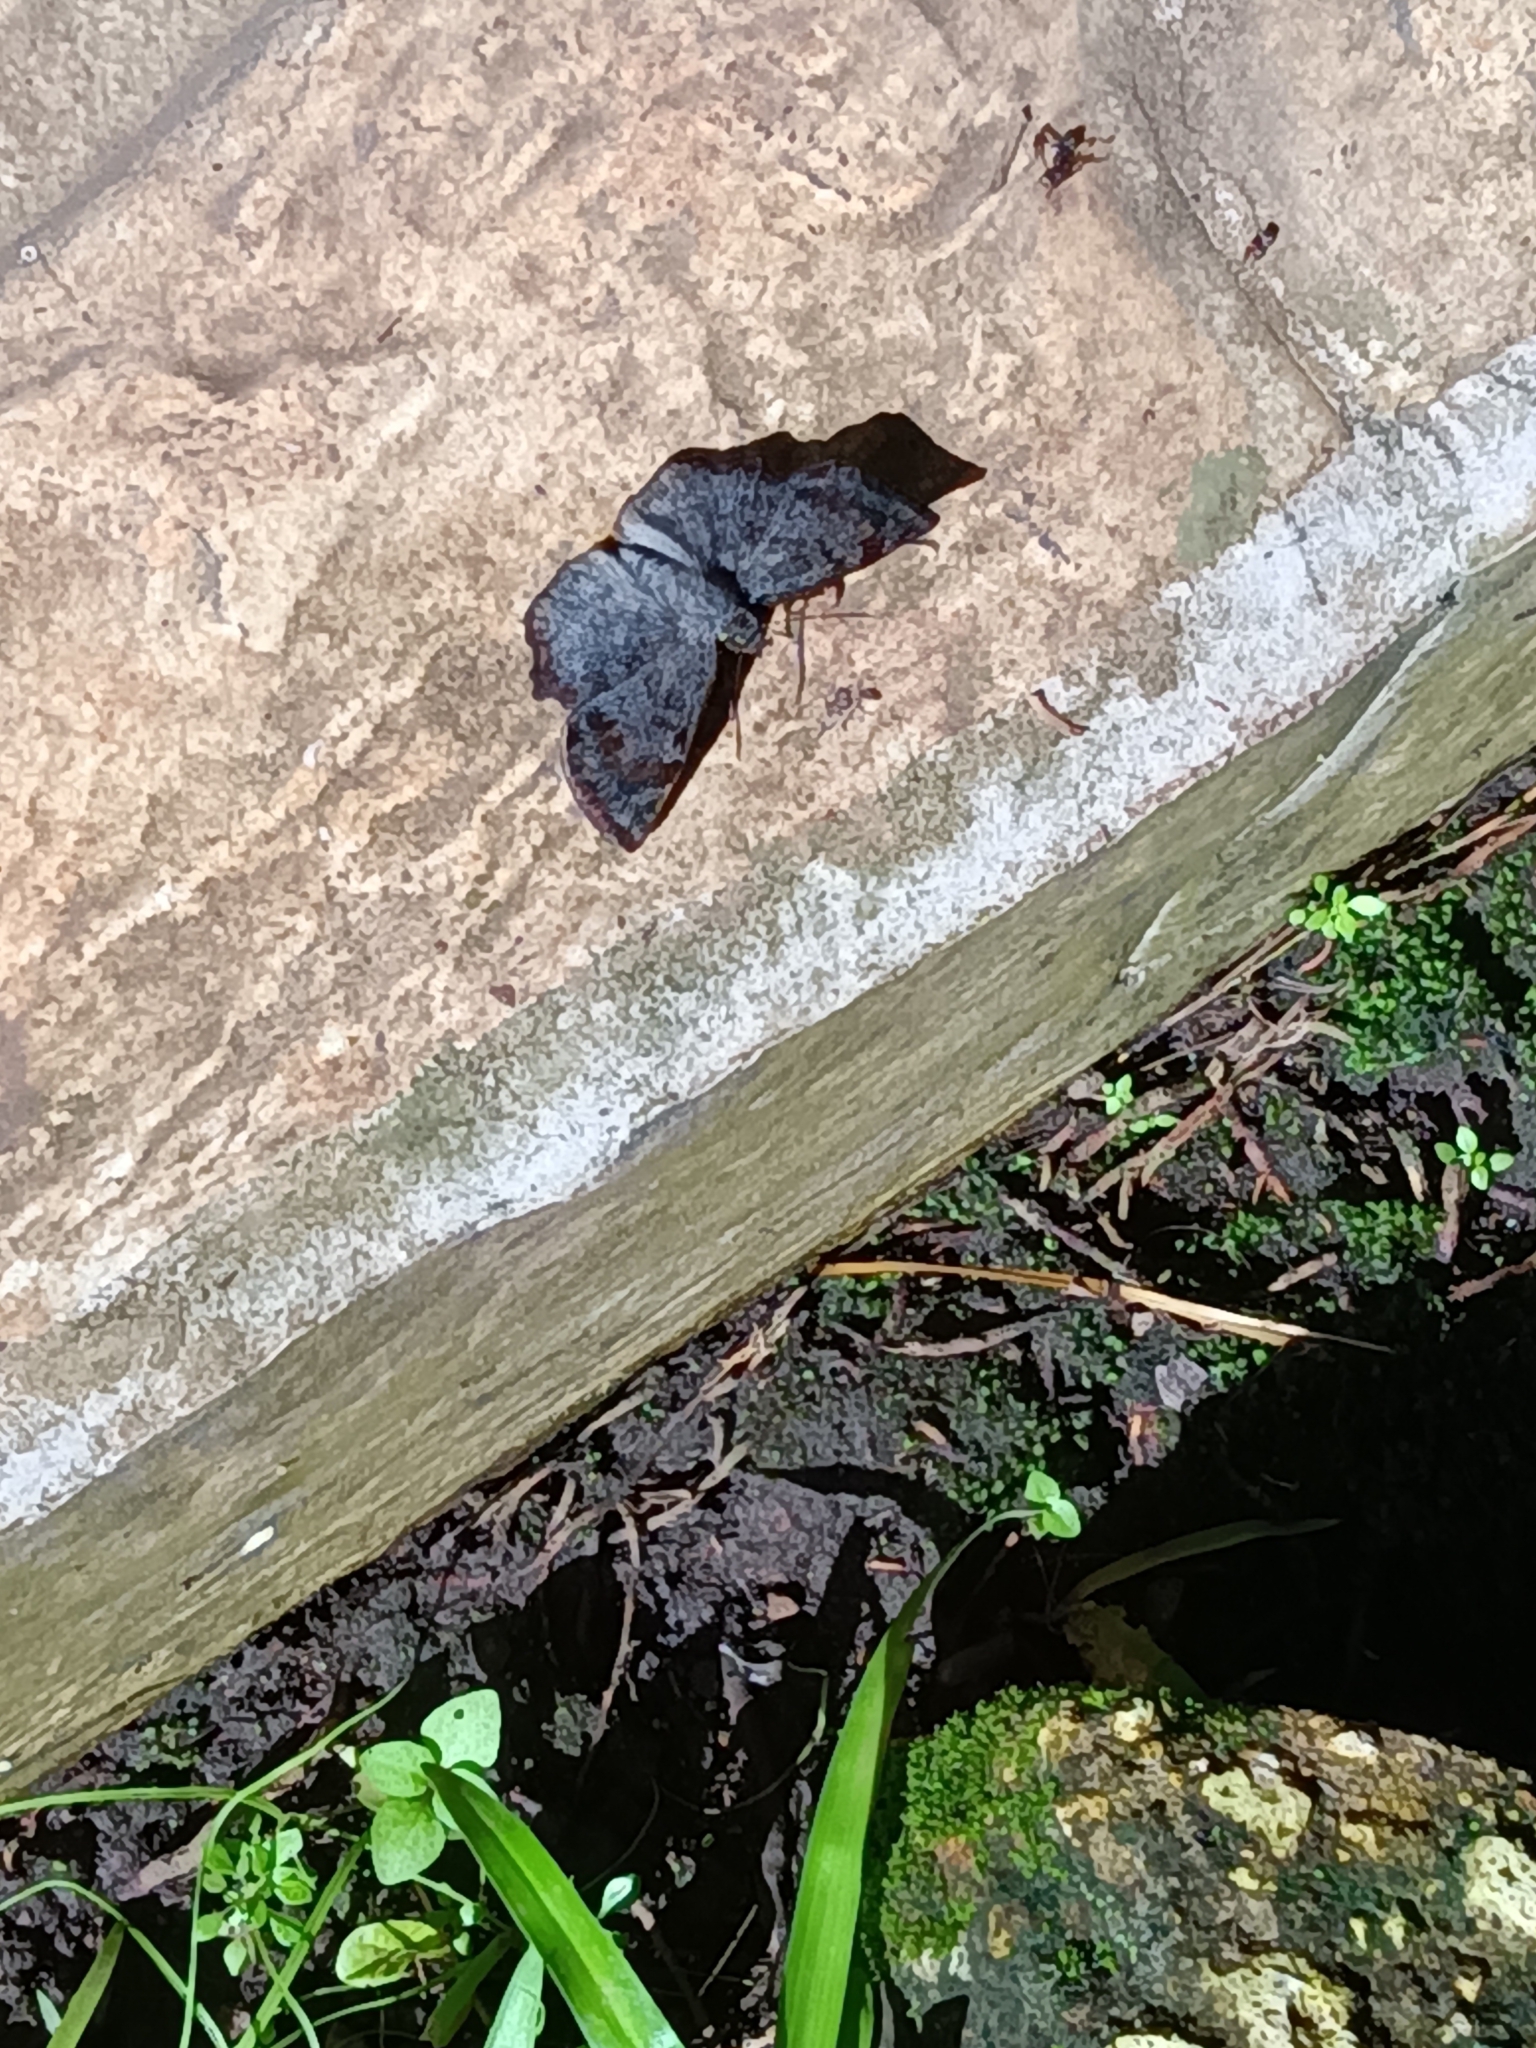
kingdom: Animalia
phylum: Arthropoda
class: Insecta
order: Lepidoptera
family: Hesperiidae
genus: Antigonus
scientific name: Antigonus erosus
